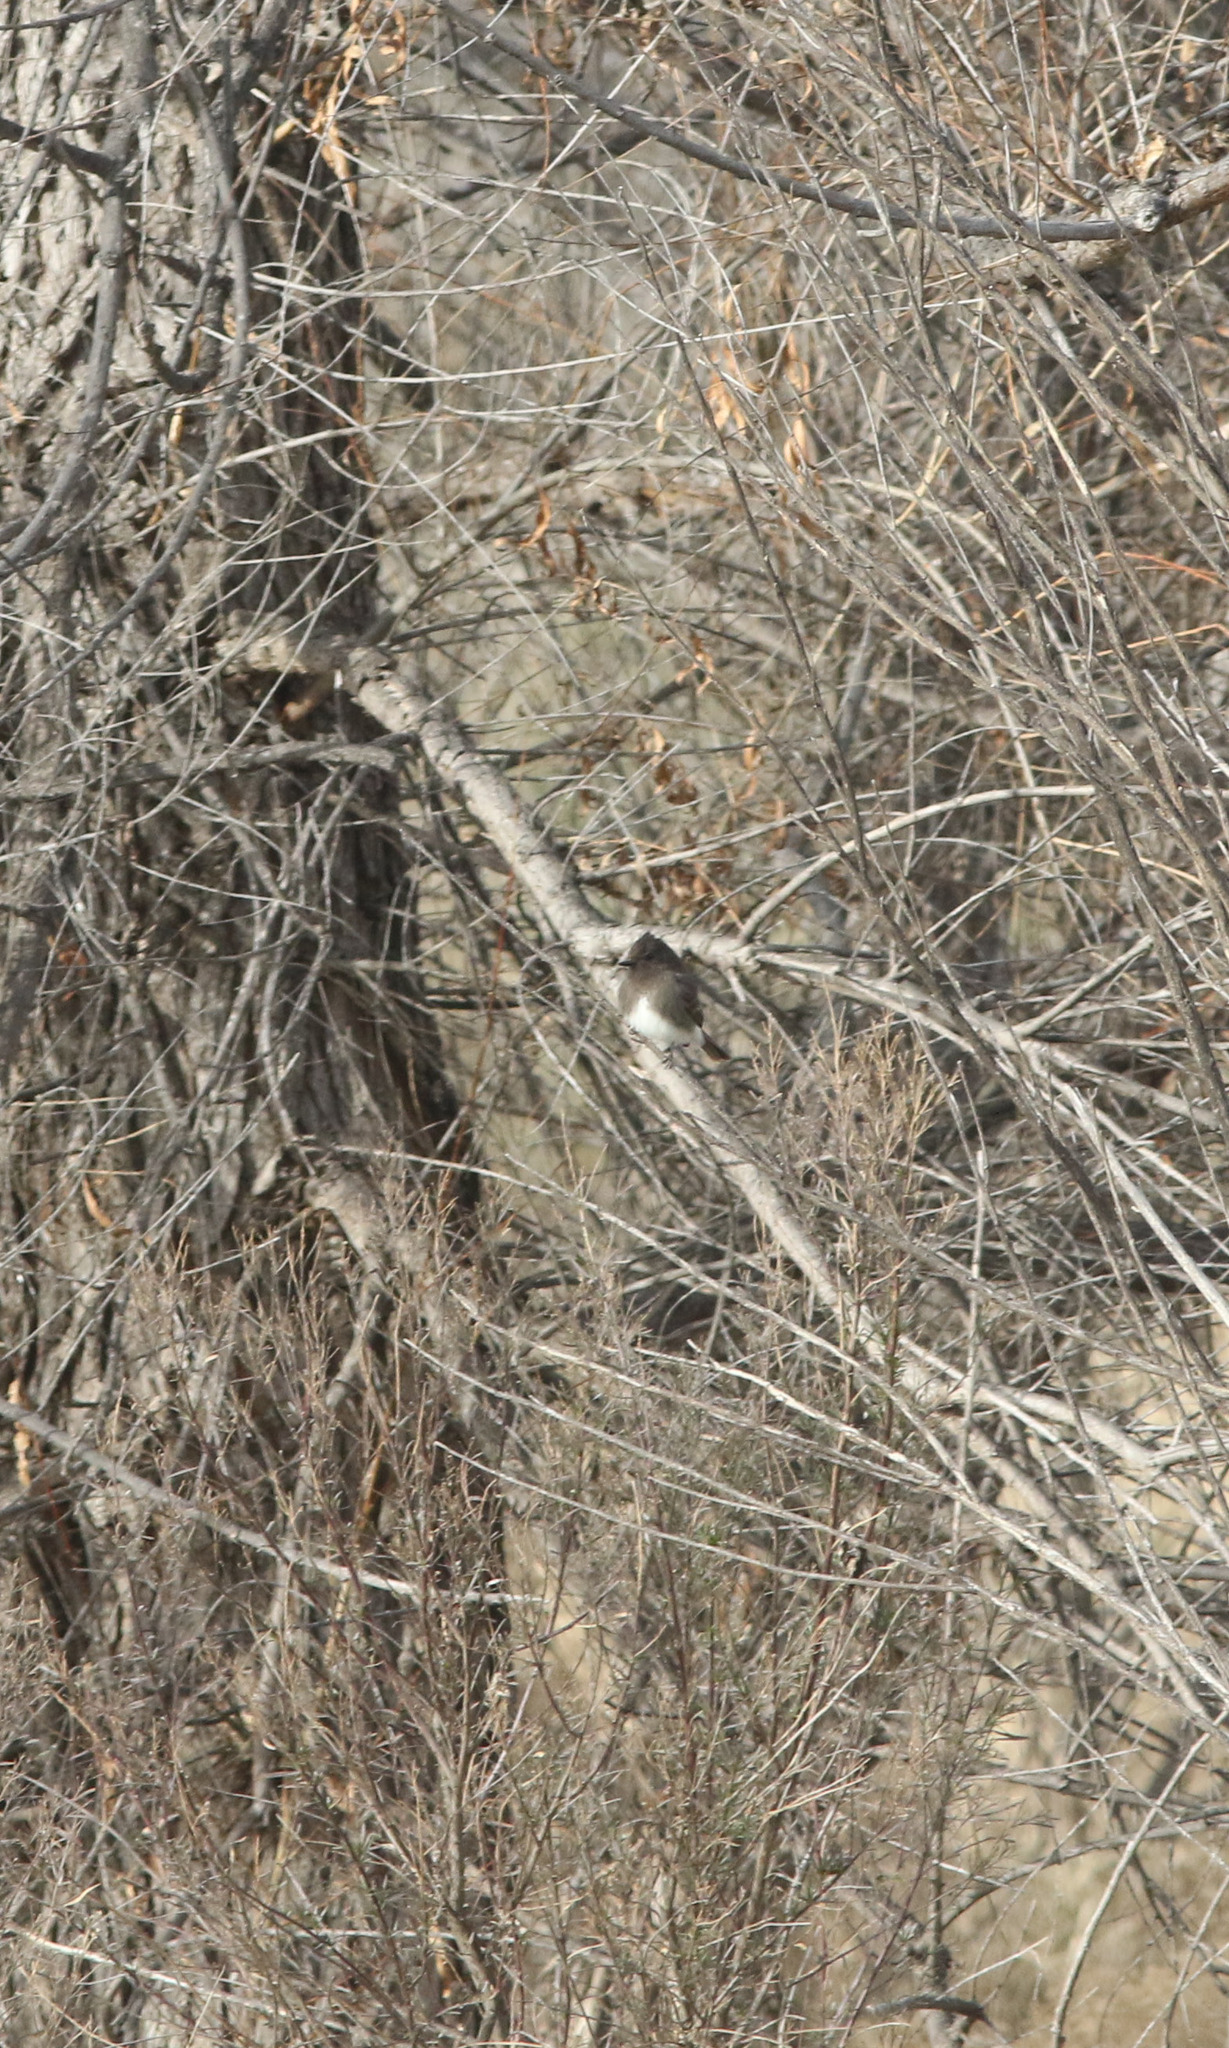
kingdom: Animalia
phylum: Chordata
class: Aves
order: Passeriformes
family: Tyrannidae
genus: Sayornis
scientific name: Sayornis nigricans
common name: Black phoebe
